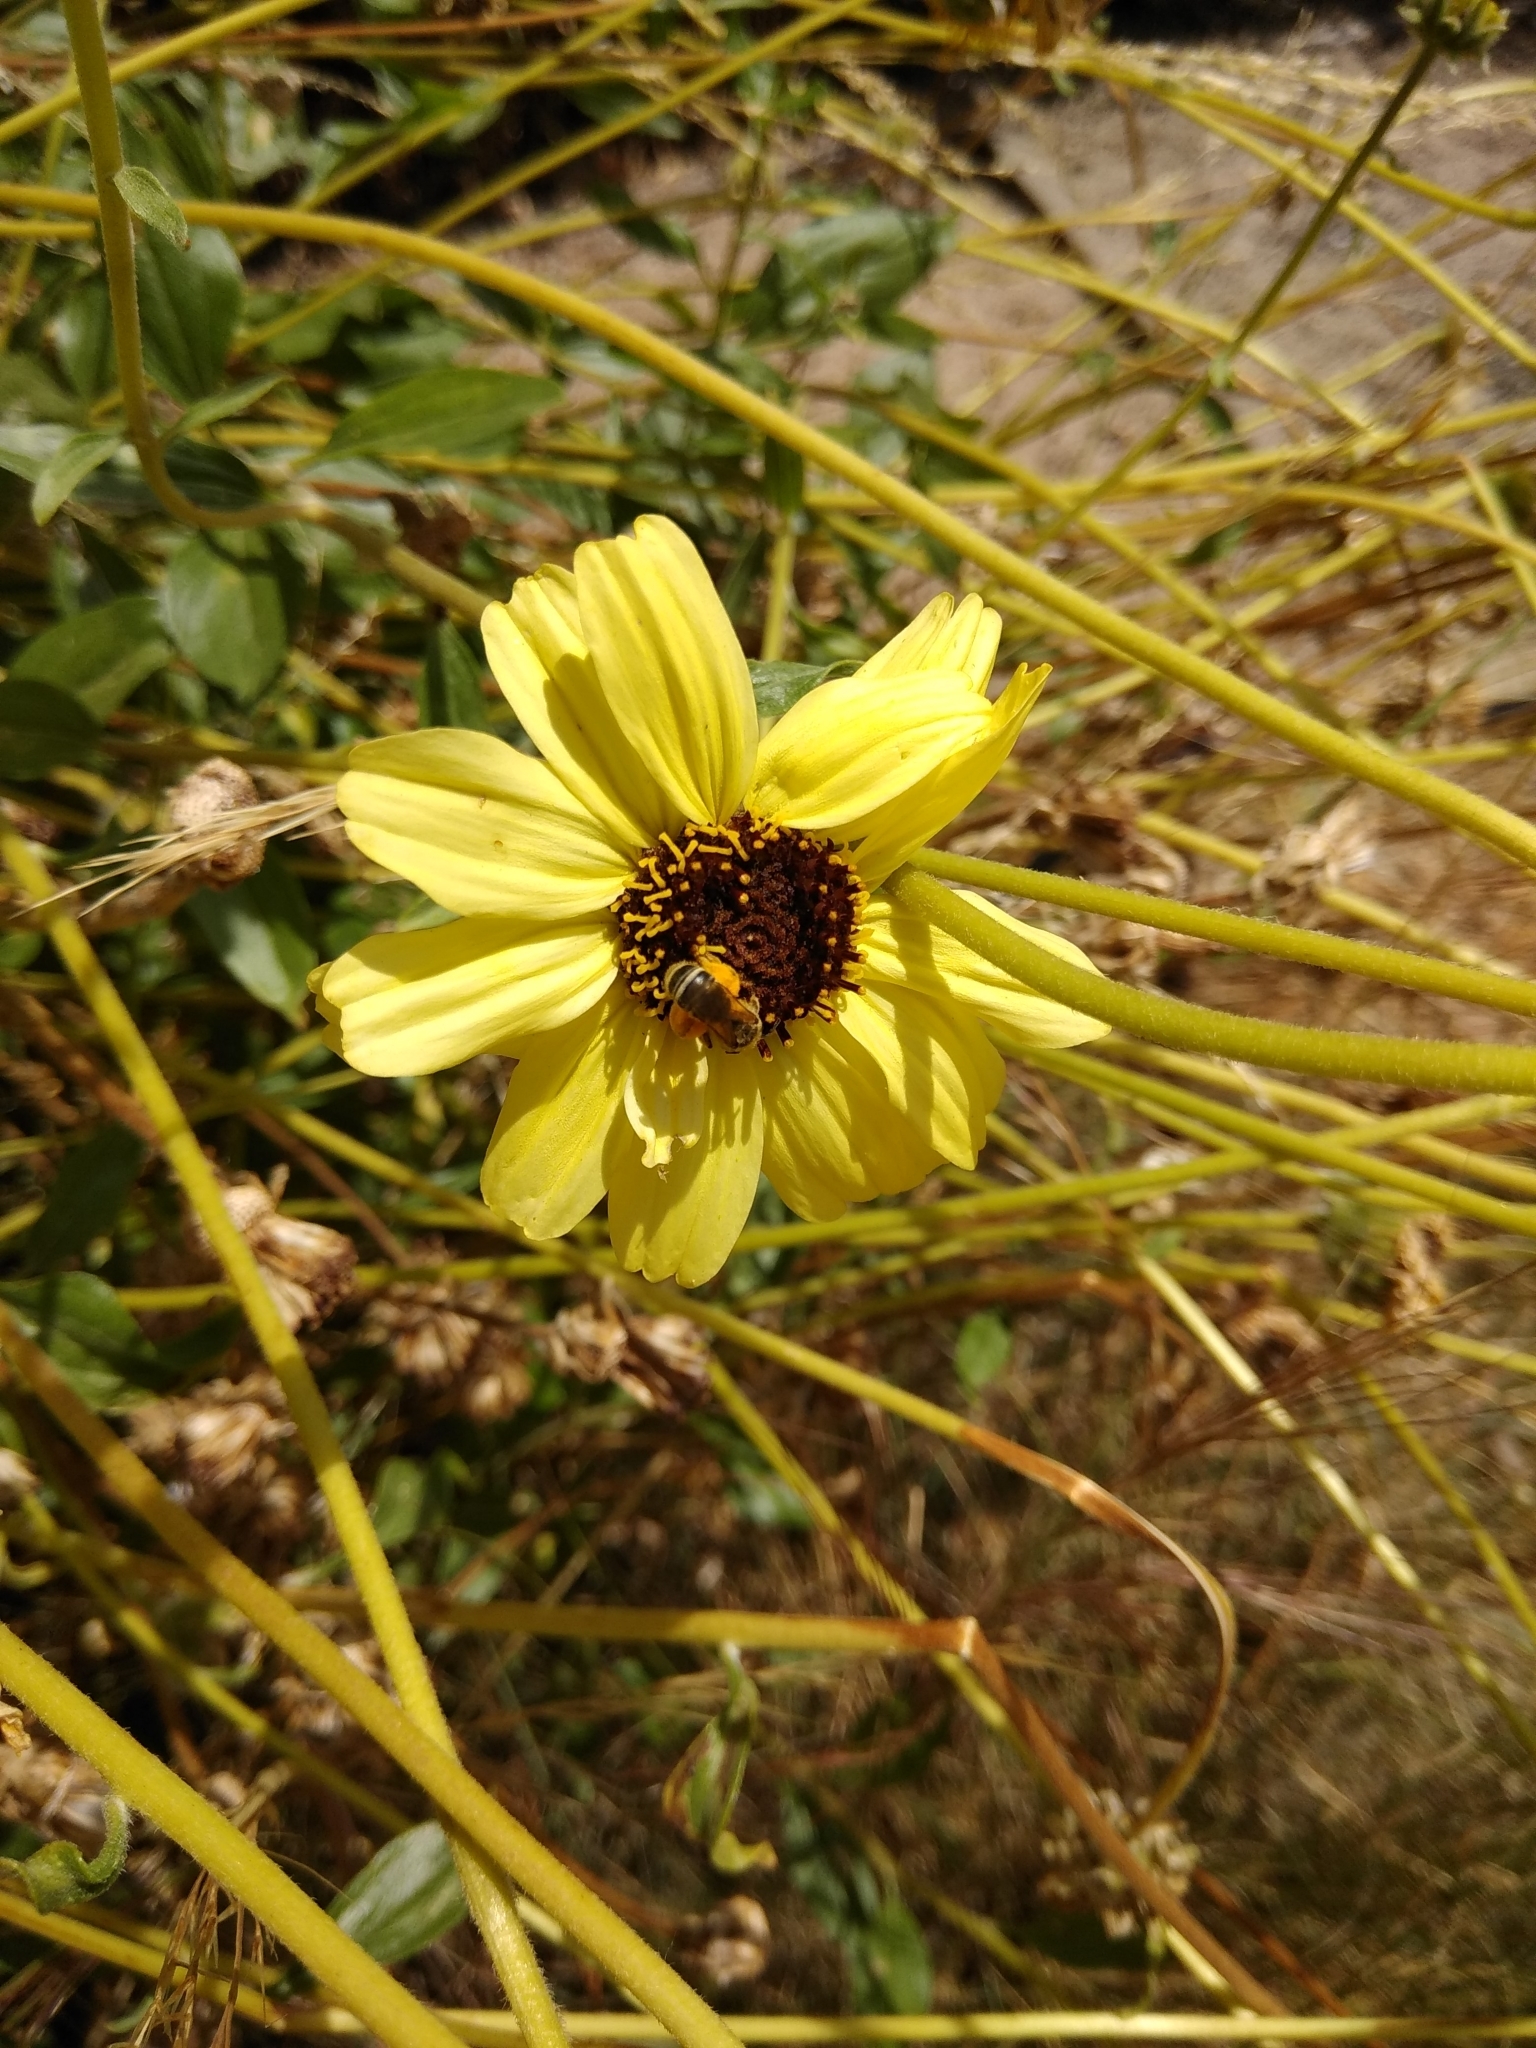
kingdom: Animalia
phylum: Arthropoda
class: Insecta
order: Hymenoptera
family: Halictidae
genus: Halictus
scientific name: Halictus ligatus
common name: Ligated furrow bee
